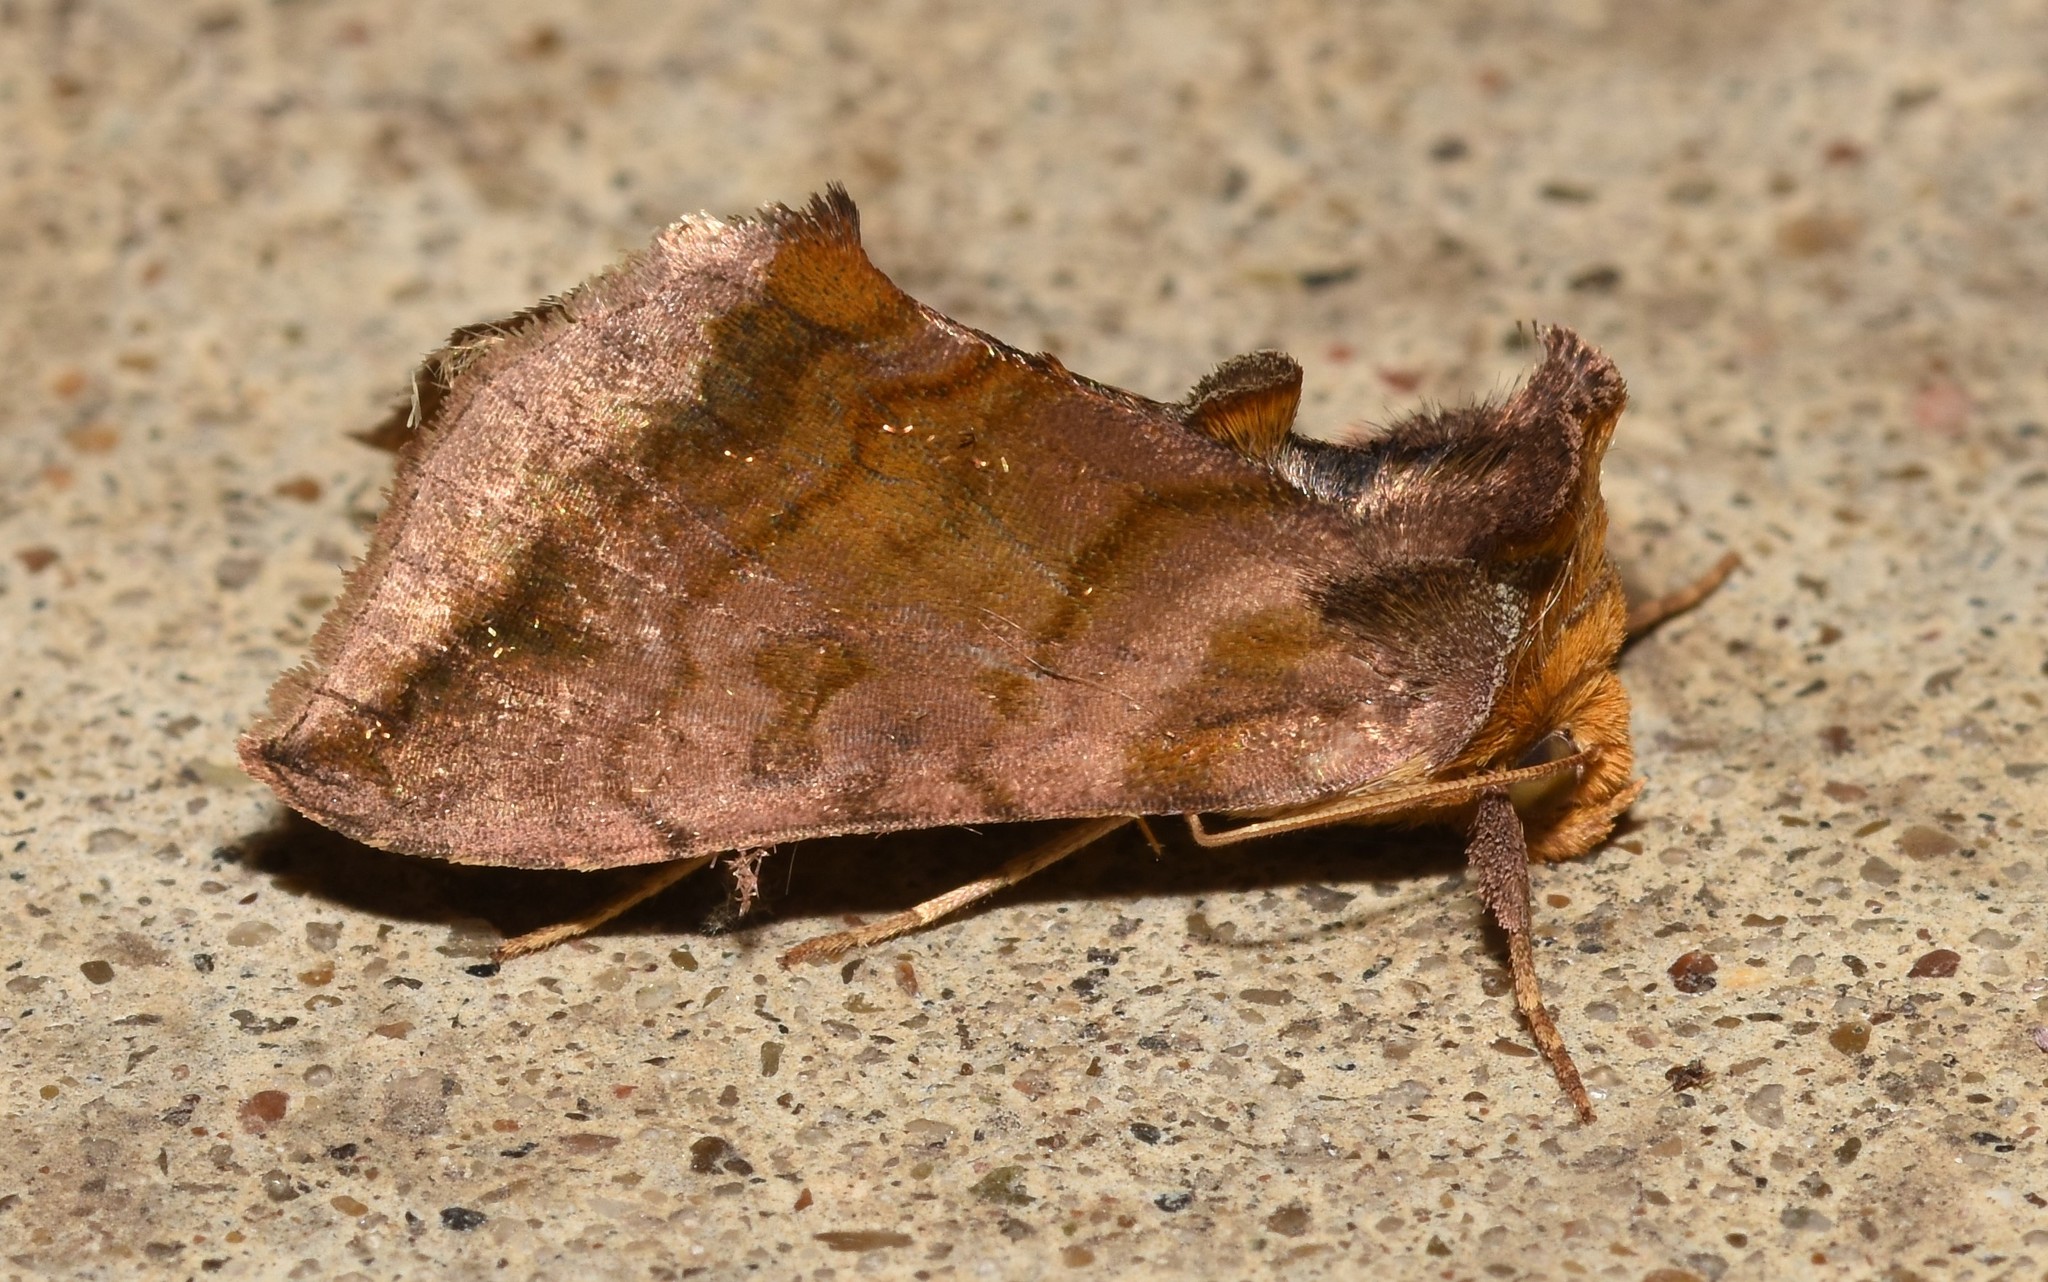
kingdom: Animalia
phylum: Arthropoda
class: Insecta
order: Lepidoptera
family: Noctuidae
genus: Allagrapha
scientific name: Allagrapha aerea
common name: Unspotted looper moth
